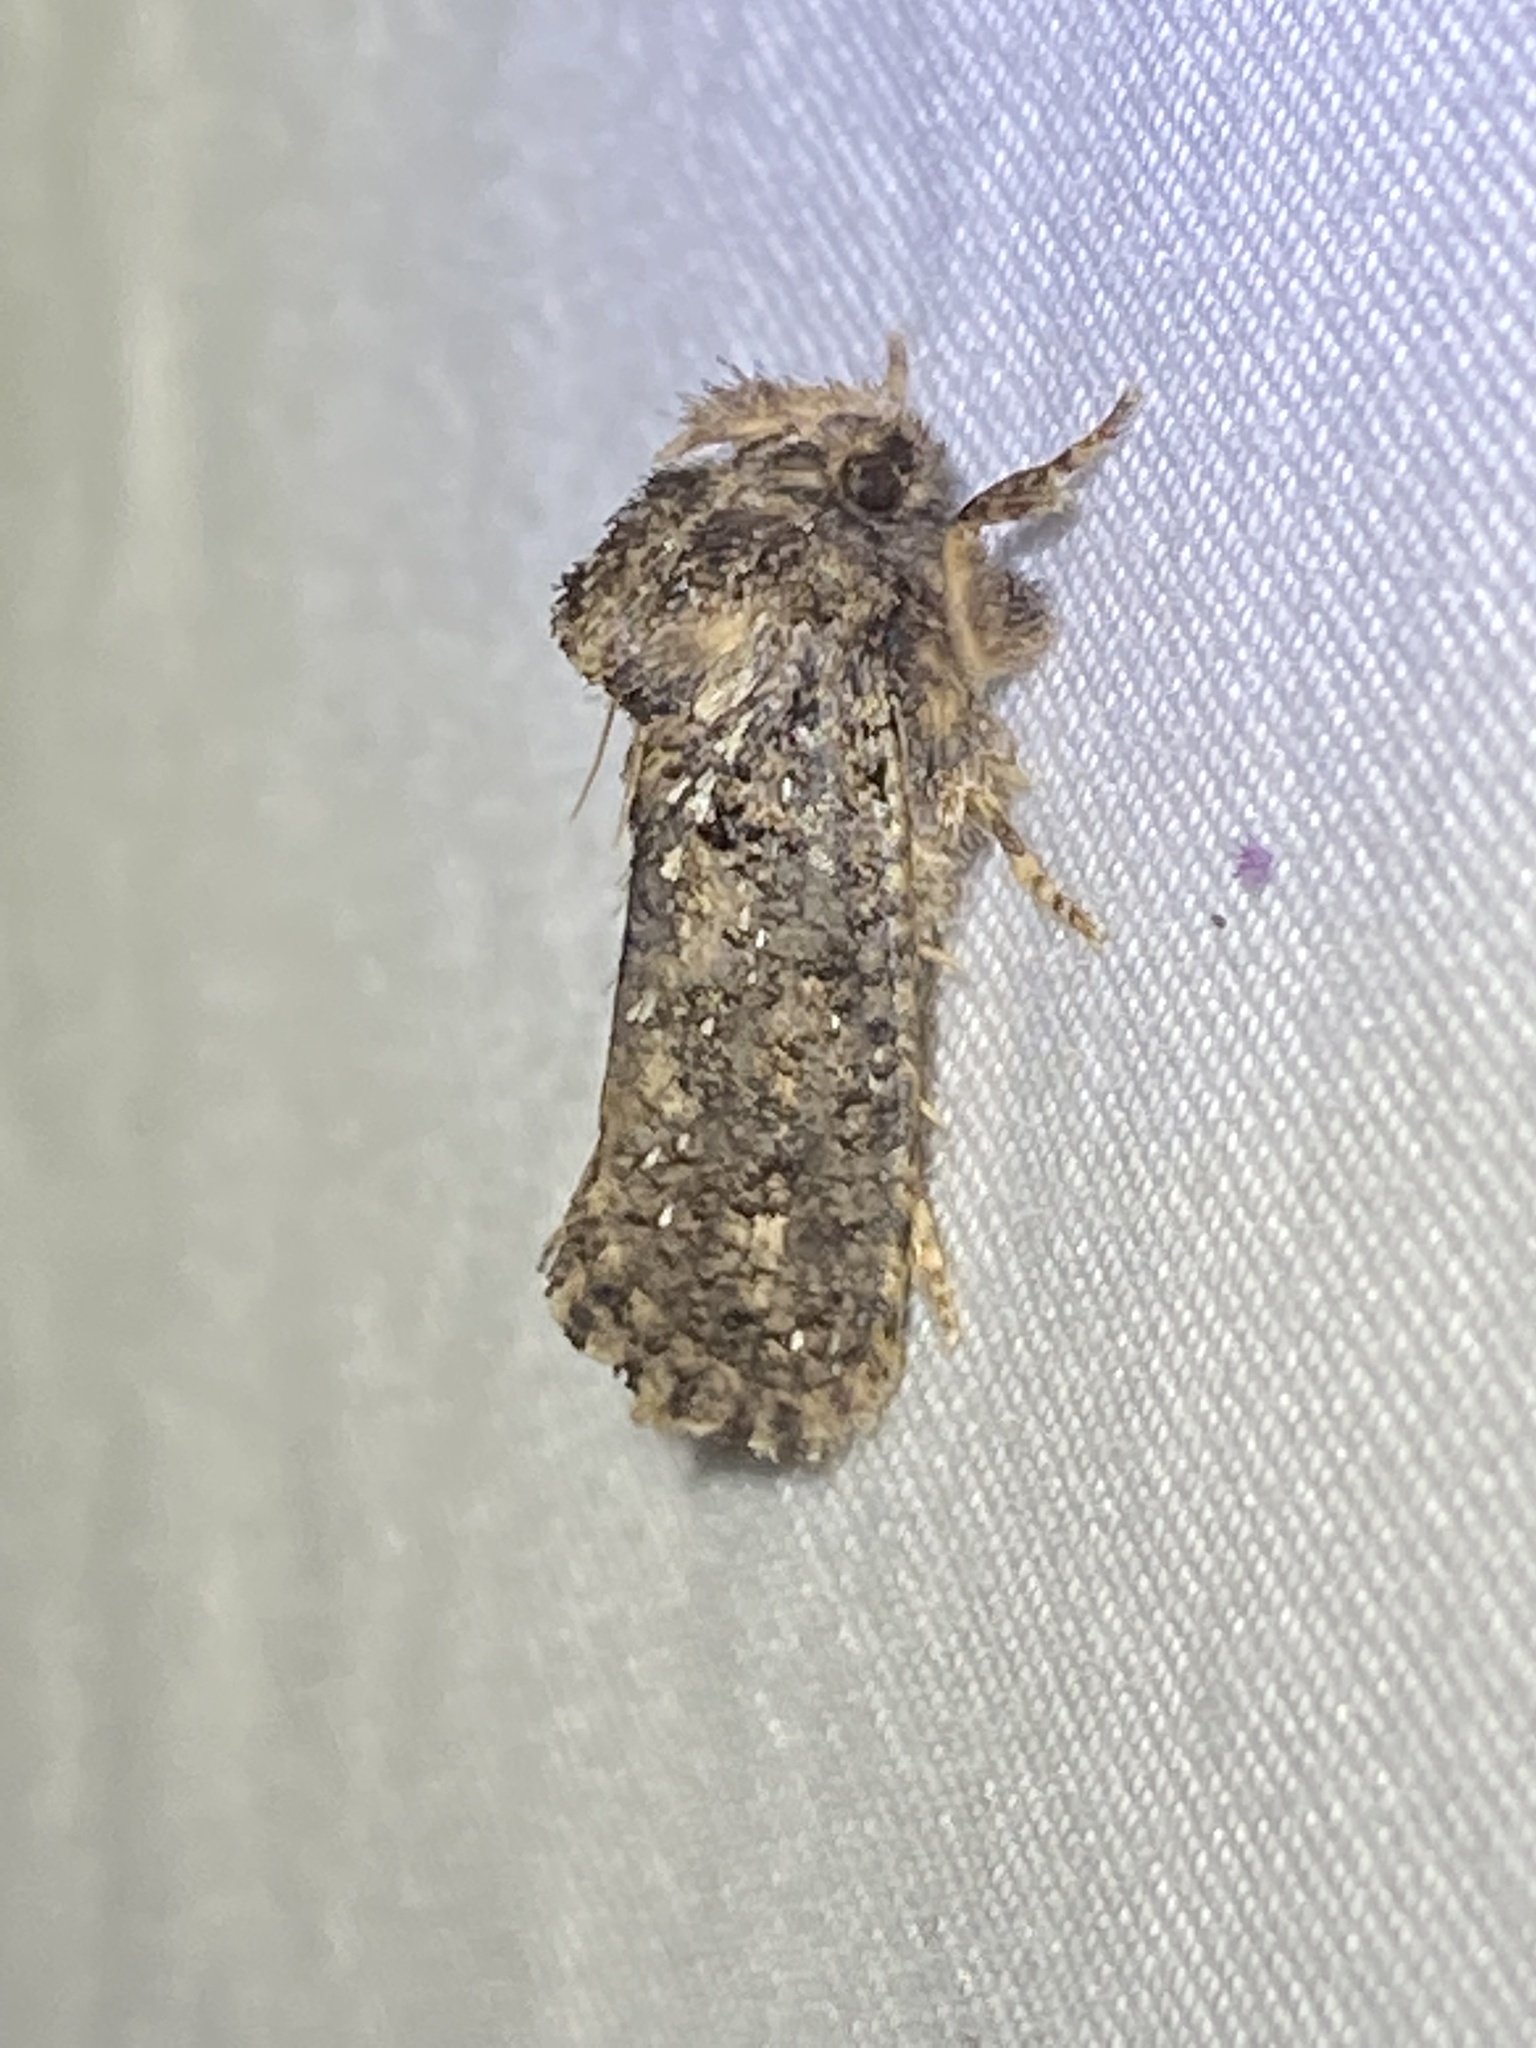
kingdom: Animalia
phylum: Arthropoda
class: Insecta
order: Lepidoptera
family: Tineidae
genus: Acrolophus
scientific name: Acrolophus arcanella
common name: Arcane grass tubeworm moth
